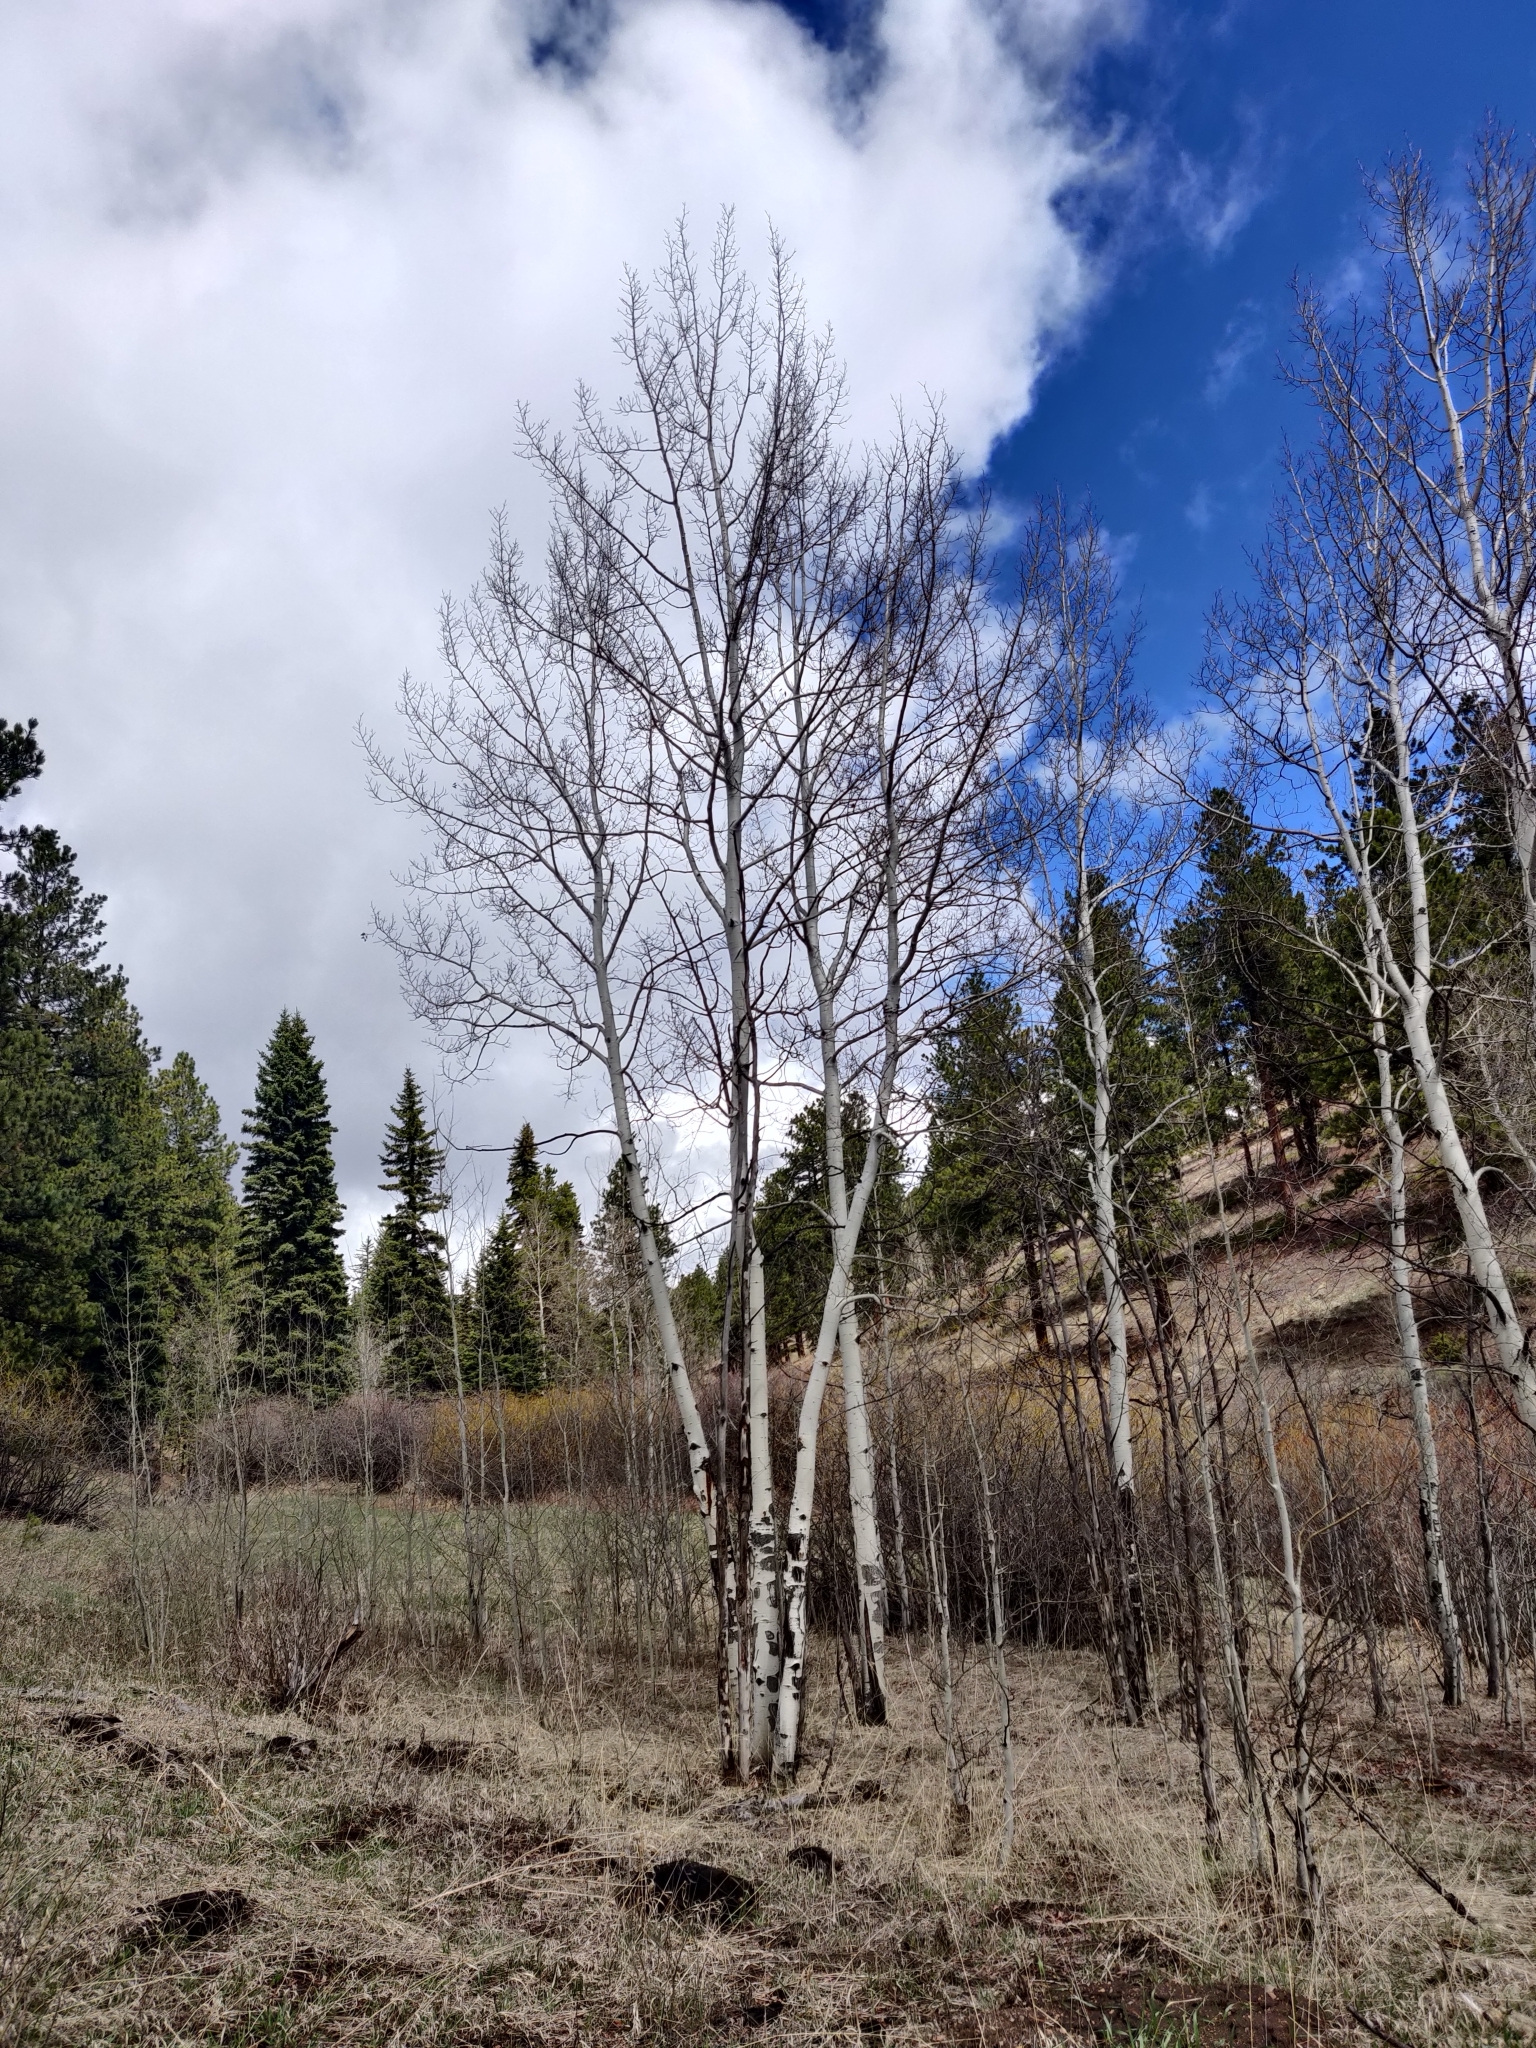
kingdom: Plantae
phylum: Tracheophyta
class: Magnoliopsida
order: Malpighiales
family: Salicaceae
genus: Populus
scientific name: Populus tremuloides
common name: Quaking aspen
